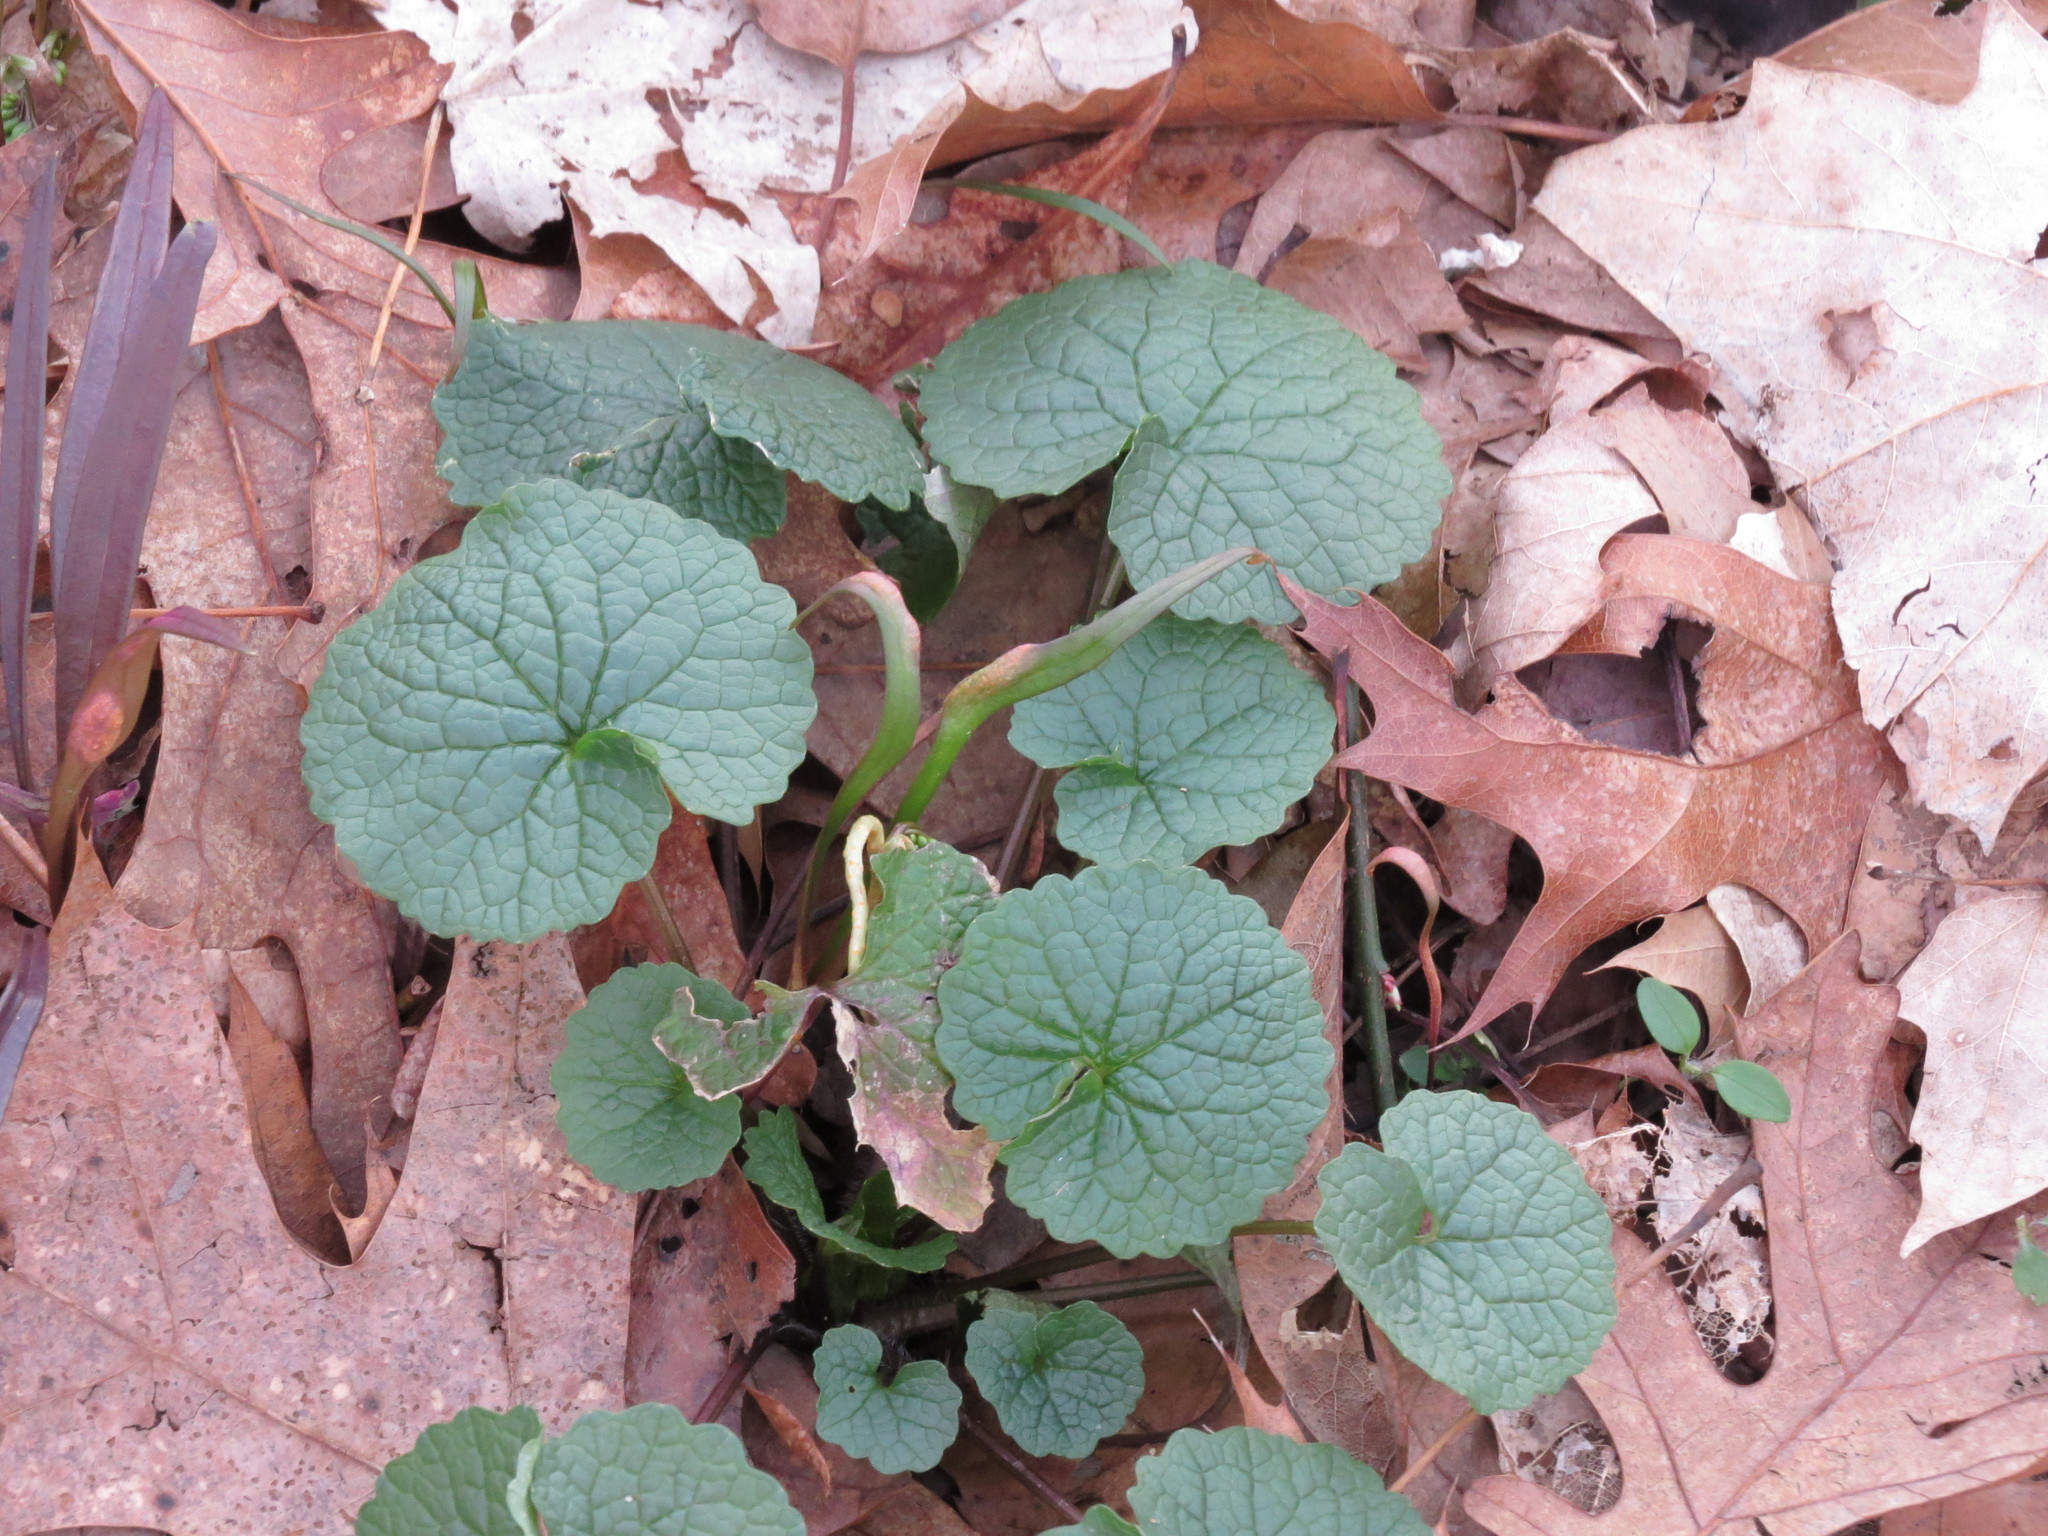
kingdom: Plantae
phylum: Tracheophyta
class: Magnoliopsida
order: Brassicales
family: Brassicaceae
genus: Alliaria
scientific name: Alliaria petiolata
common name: Garlic mustard
